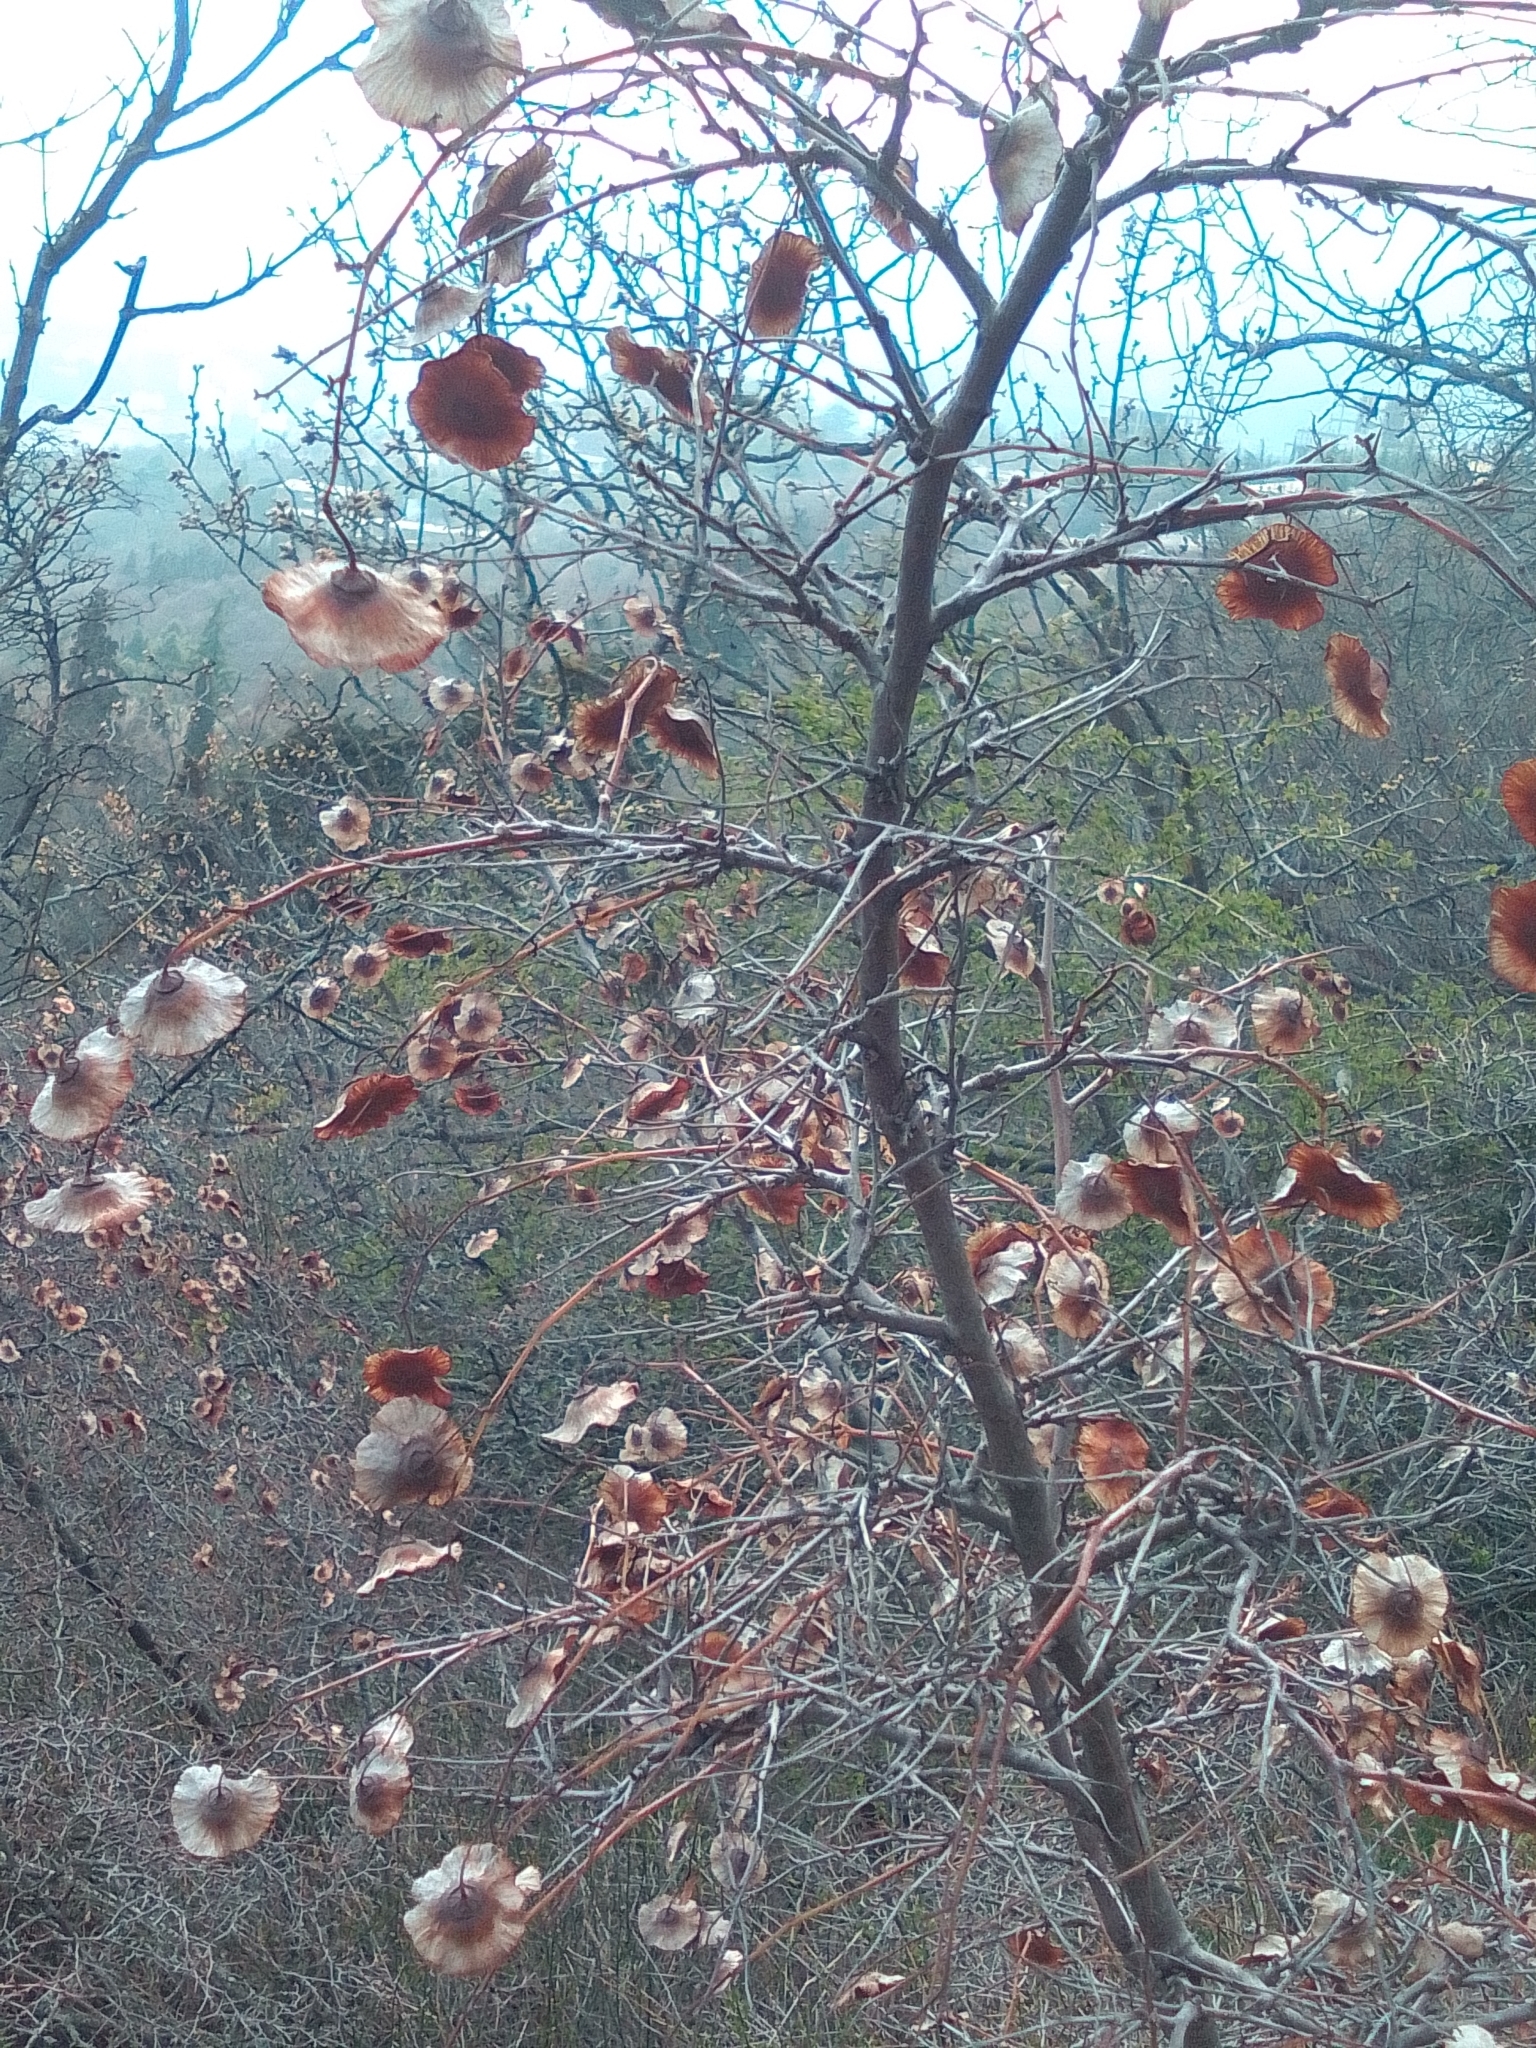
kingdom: Plantae
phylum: Tracheophyta
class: Magnoliopsida
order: Rosales
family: Rhamnaceae
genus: Paliurus
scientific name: Paliurus spina-christi
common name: Jeruselem thorn
